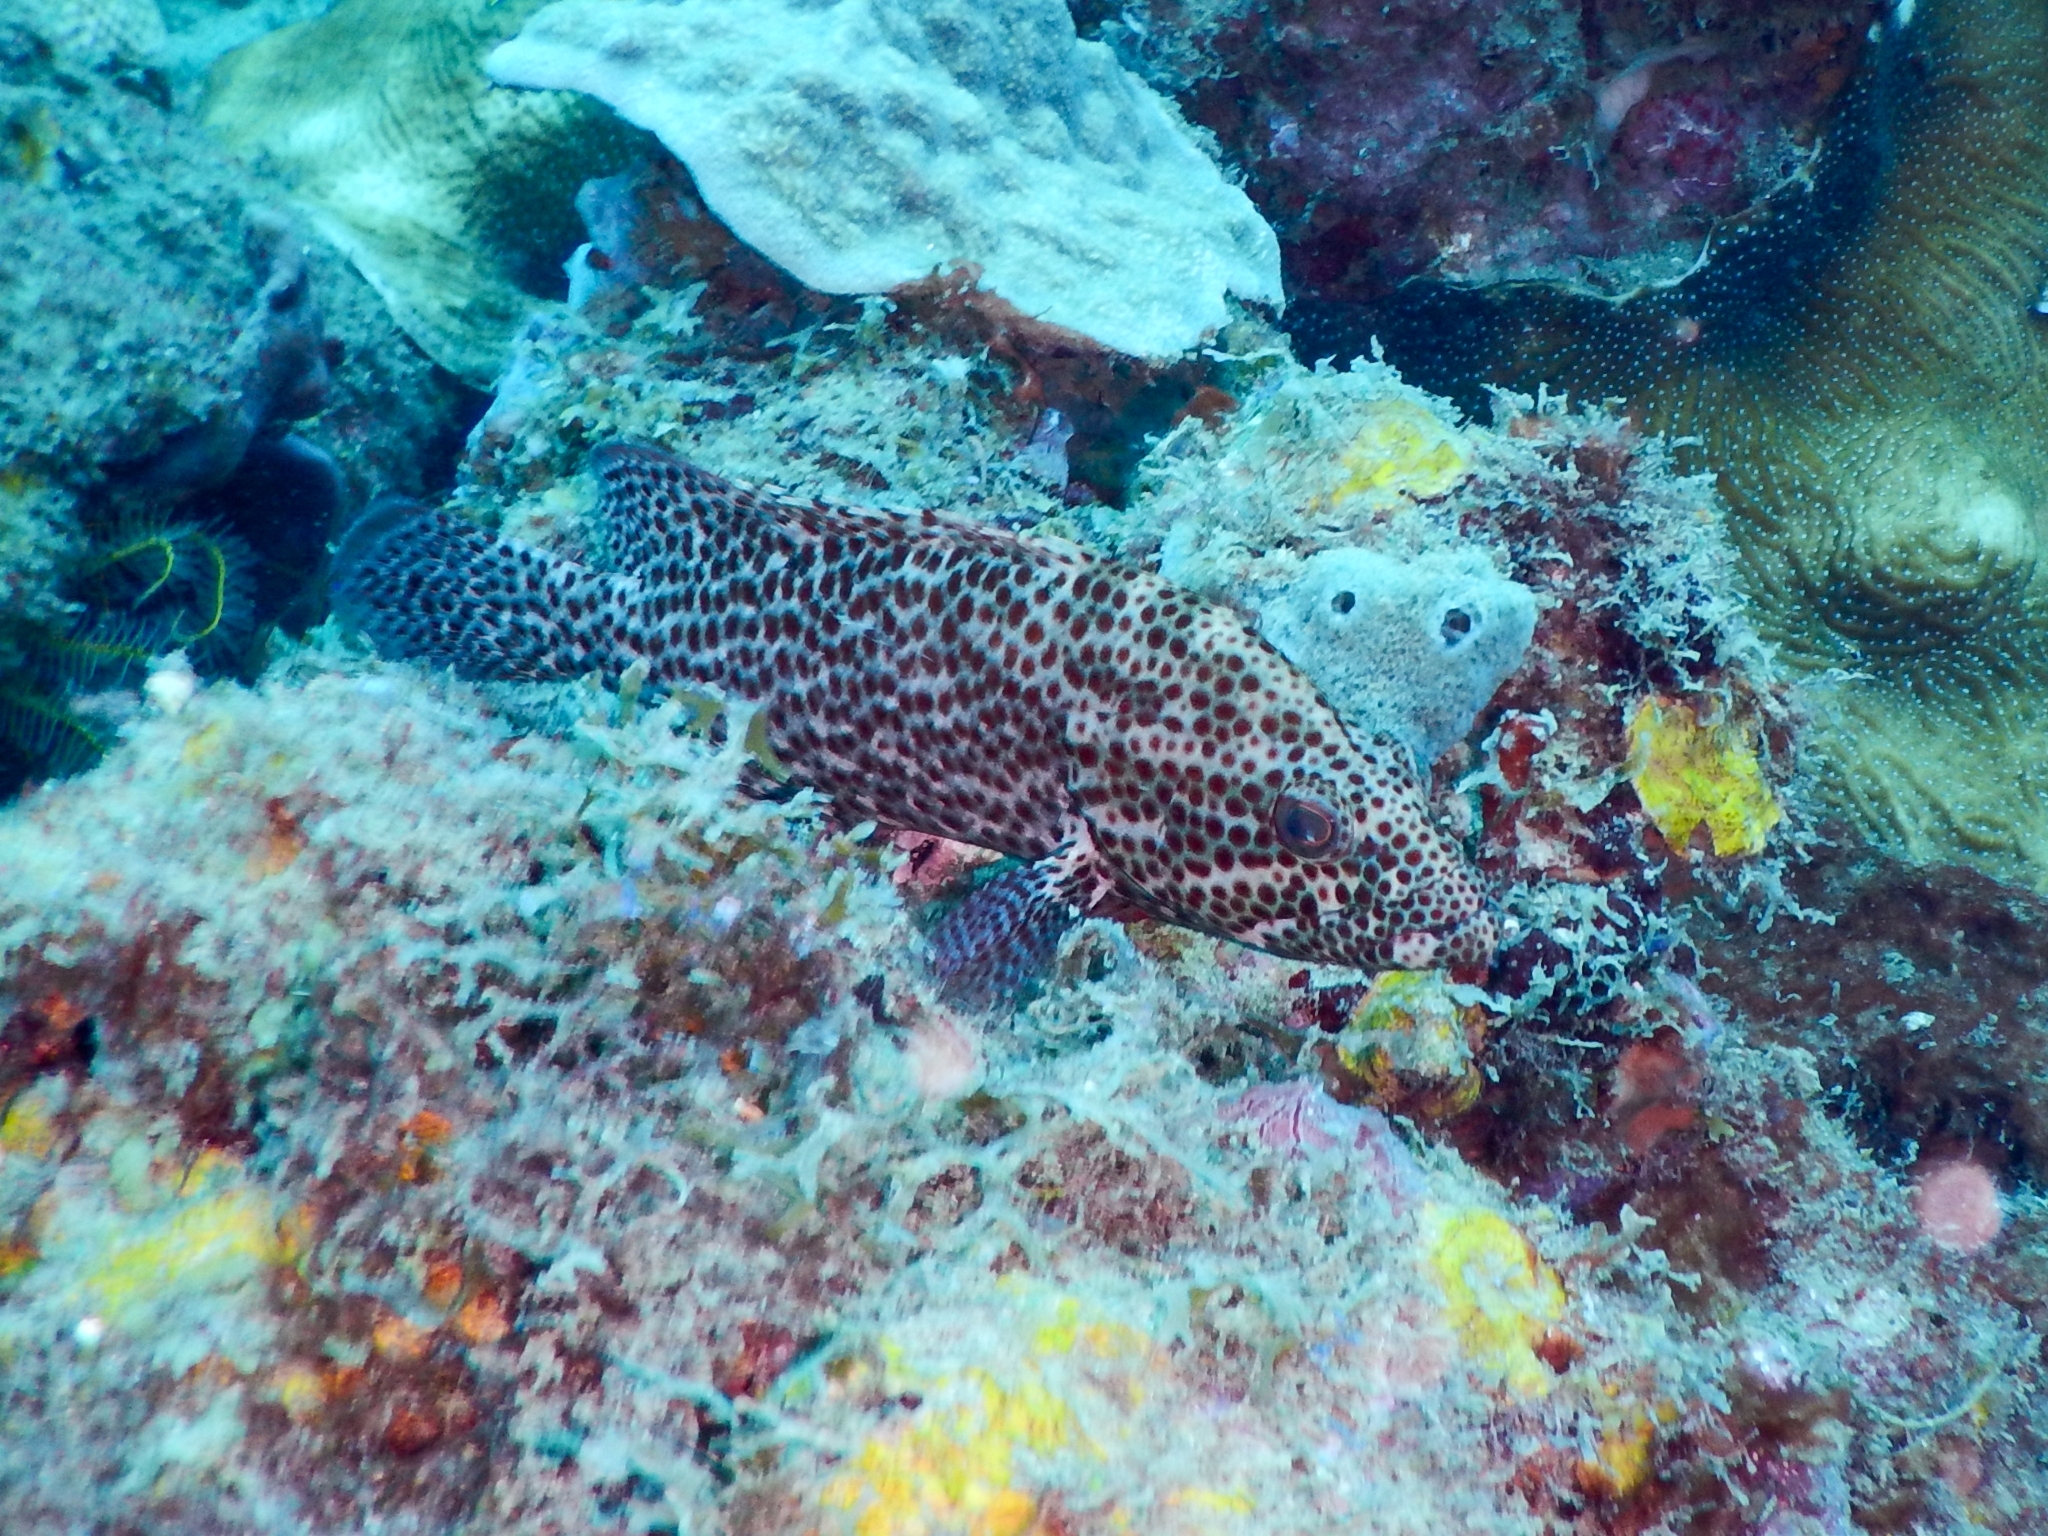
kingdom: Animalia
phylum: Chordata
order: Perciformes
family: Serranidae
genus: Cephalopholis
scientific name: Cephalopholis cruentata
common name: Graysby
